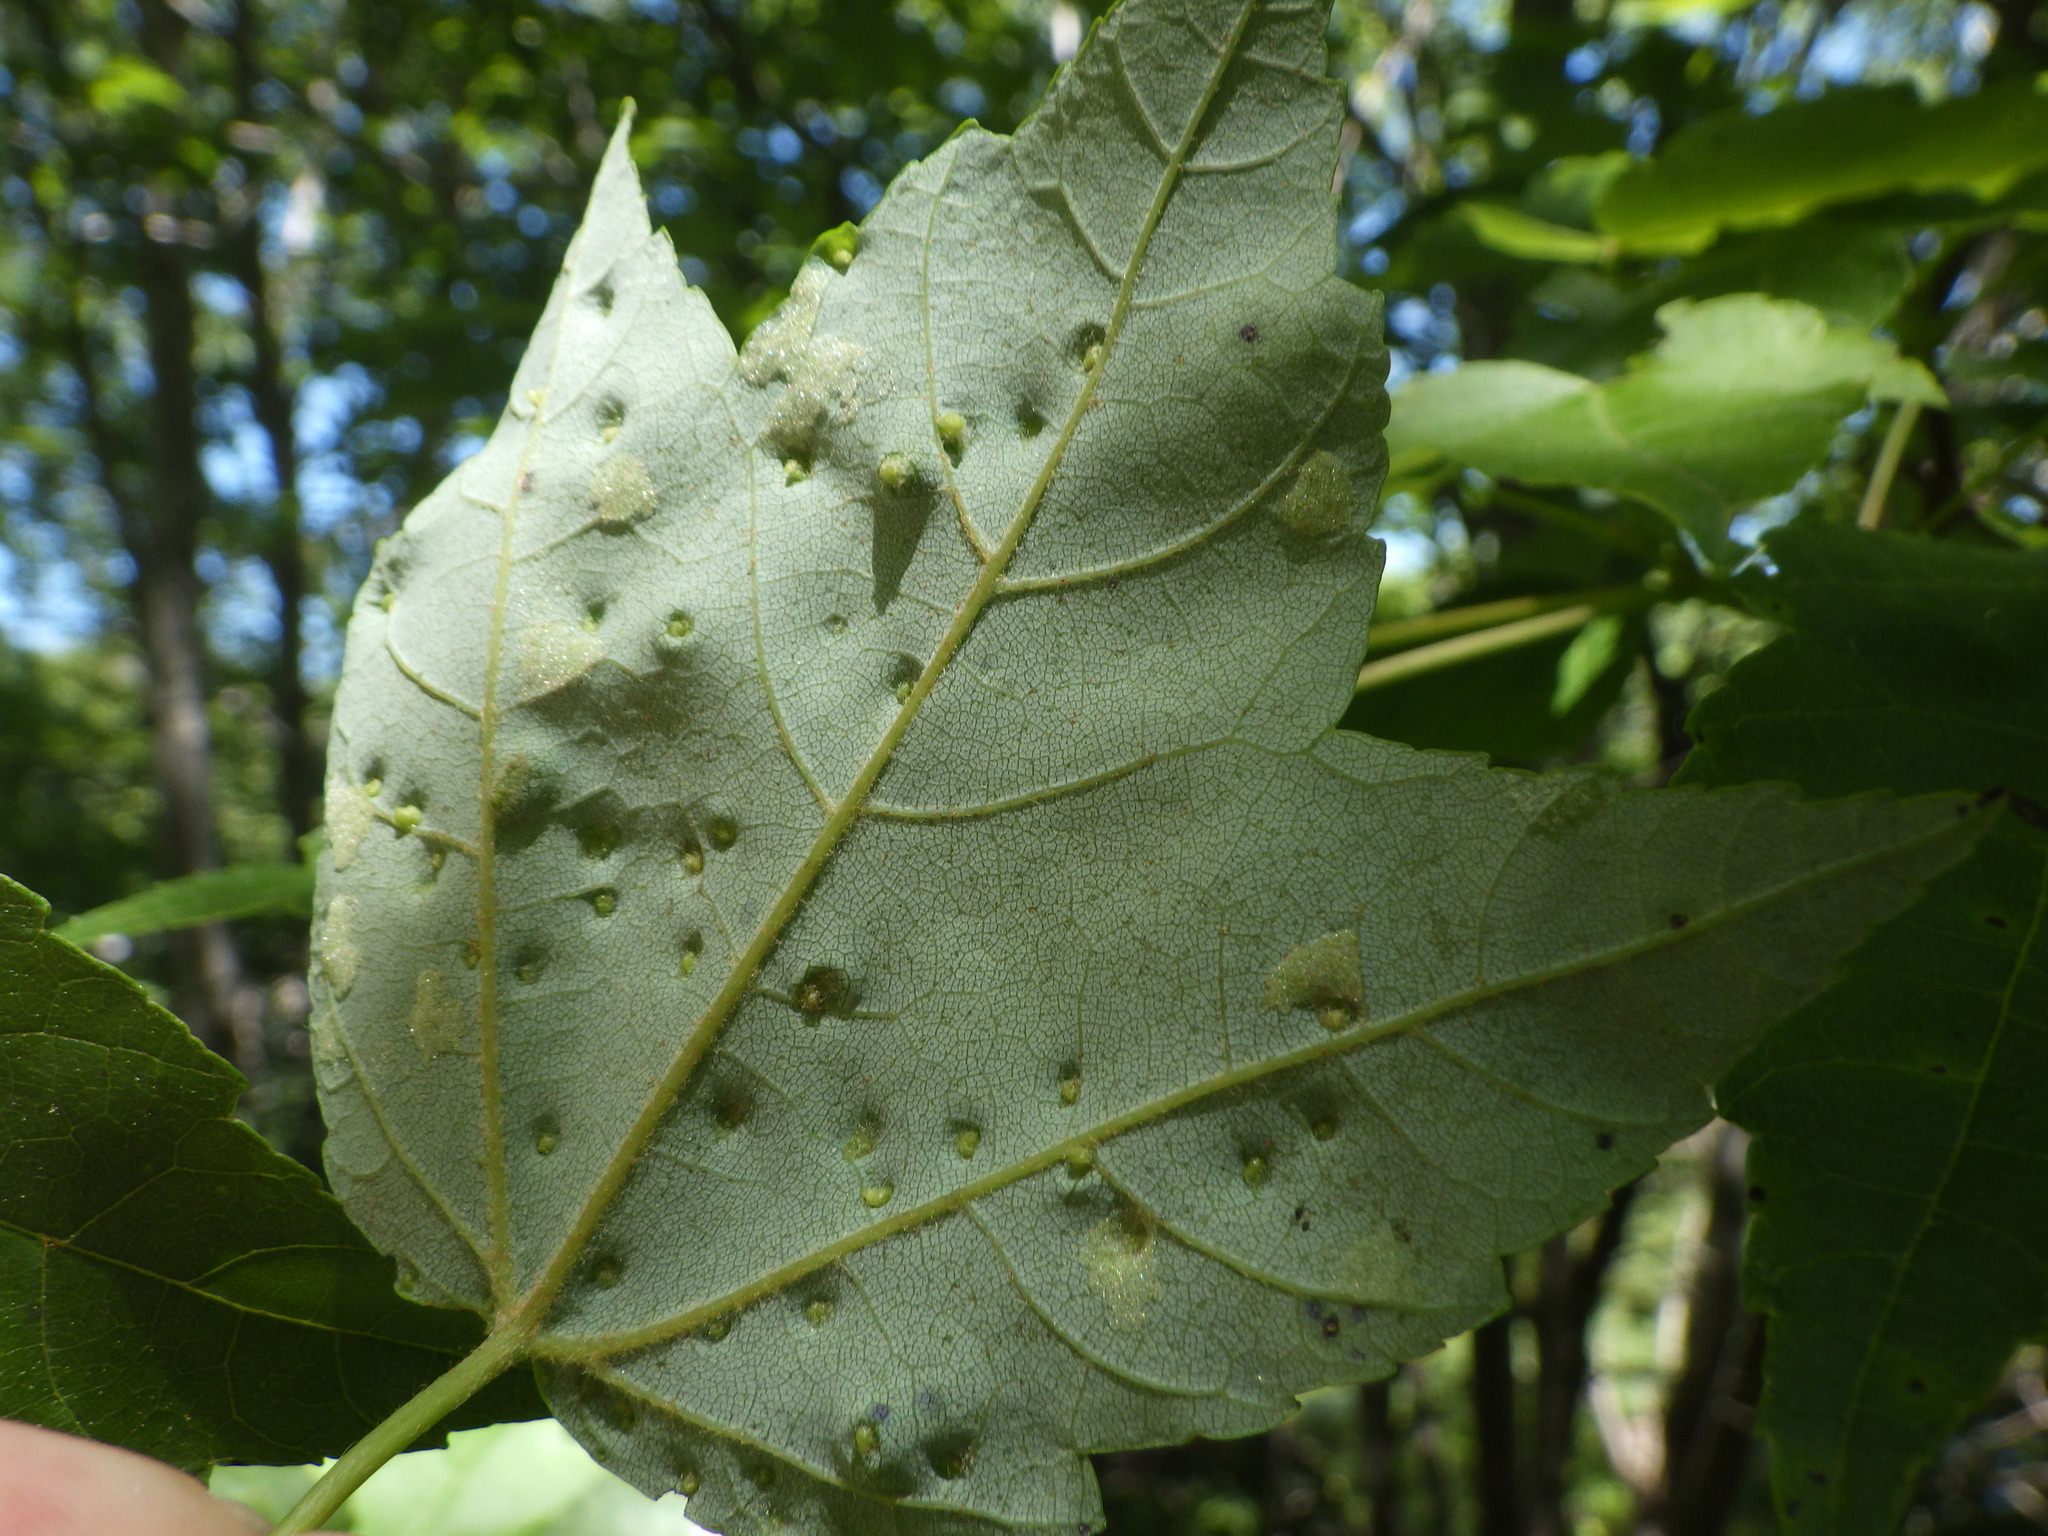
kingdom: Animalia
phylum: Arthropoda
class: Arachnida
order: Trombidiformes
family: Eriophyidae
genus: Vasates
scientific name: Vasates quadripedes
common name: Maple bladder gall mite
